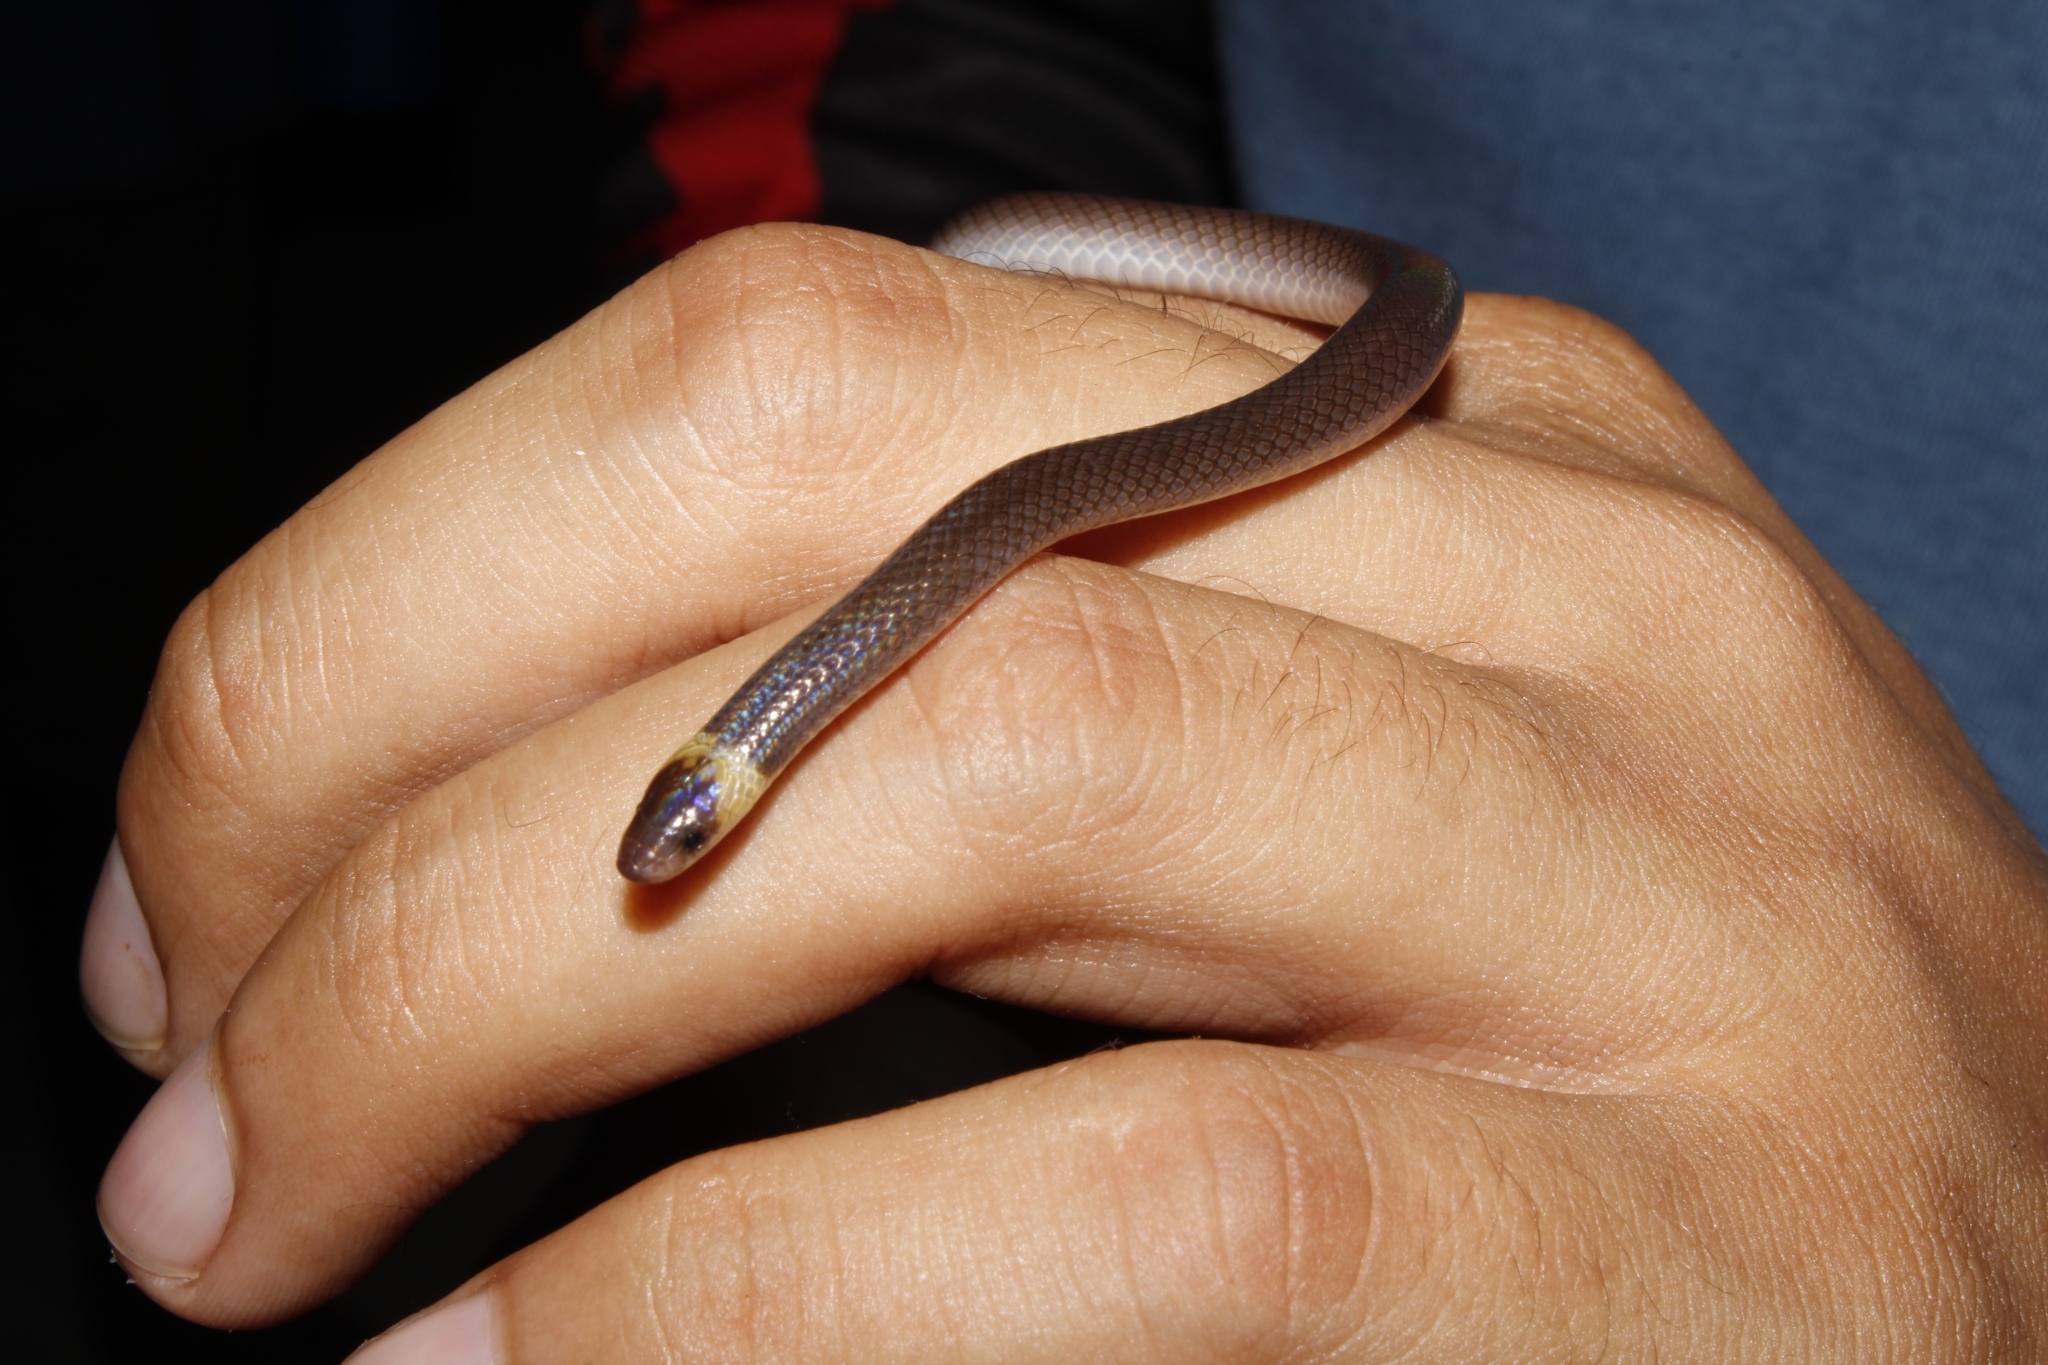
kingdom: Animalia
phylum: Chordata
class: Squamata
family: Colubridae
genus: Enulius
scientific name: Enulius flavitorques
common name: Pacific longtail snake
